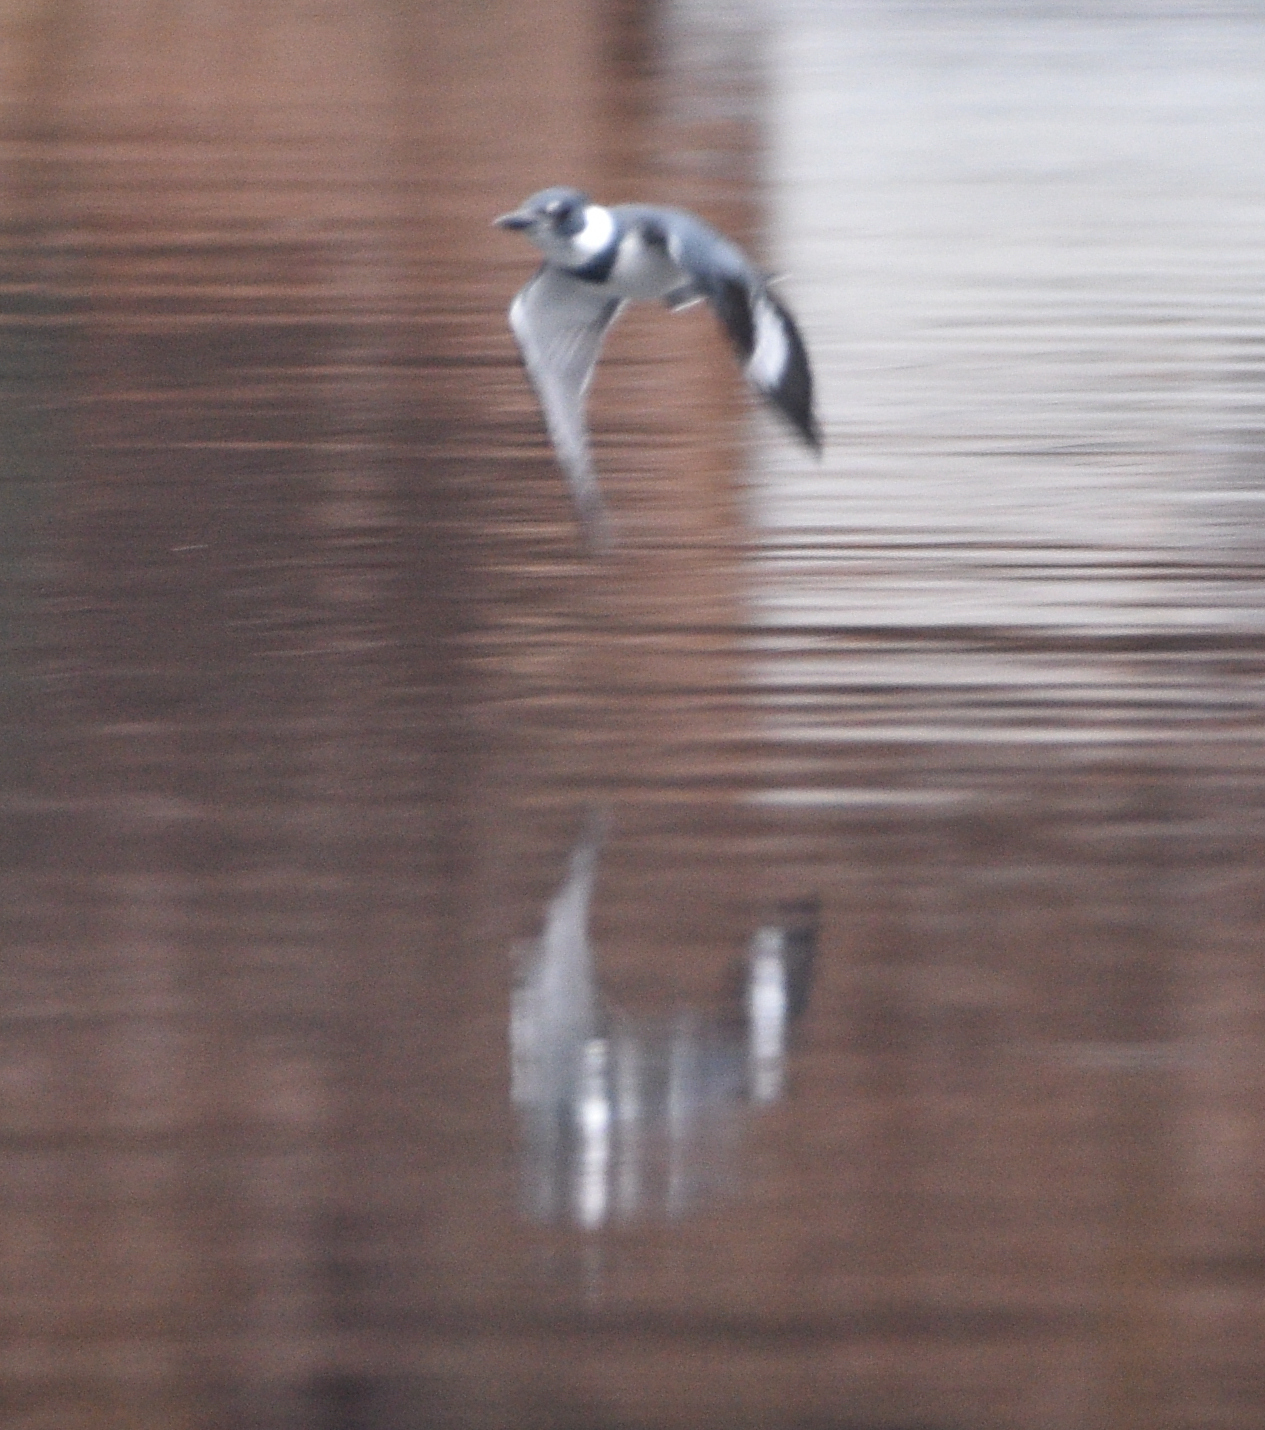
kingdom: Animalia
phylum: Chordata
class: Aves
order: Coraciiformes
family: Alcedinidae
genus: Megaceryle
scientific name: Megaceryle alcyon
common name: Belted kingfisher
